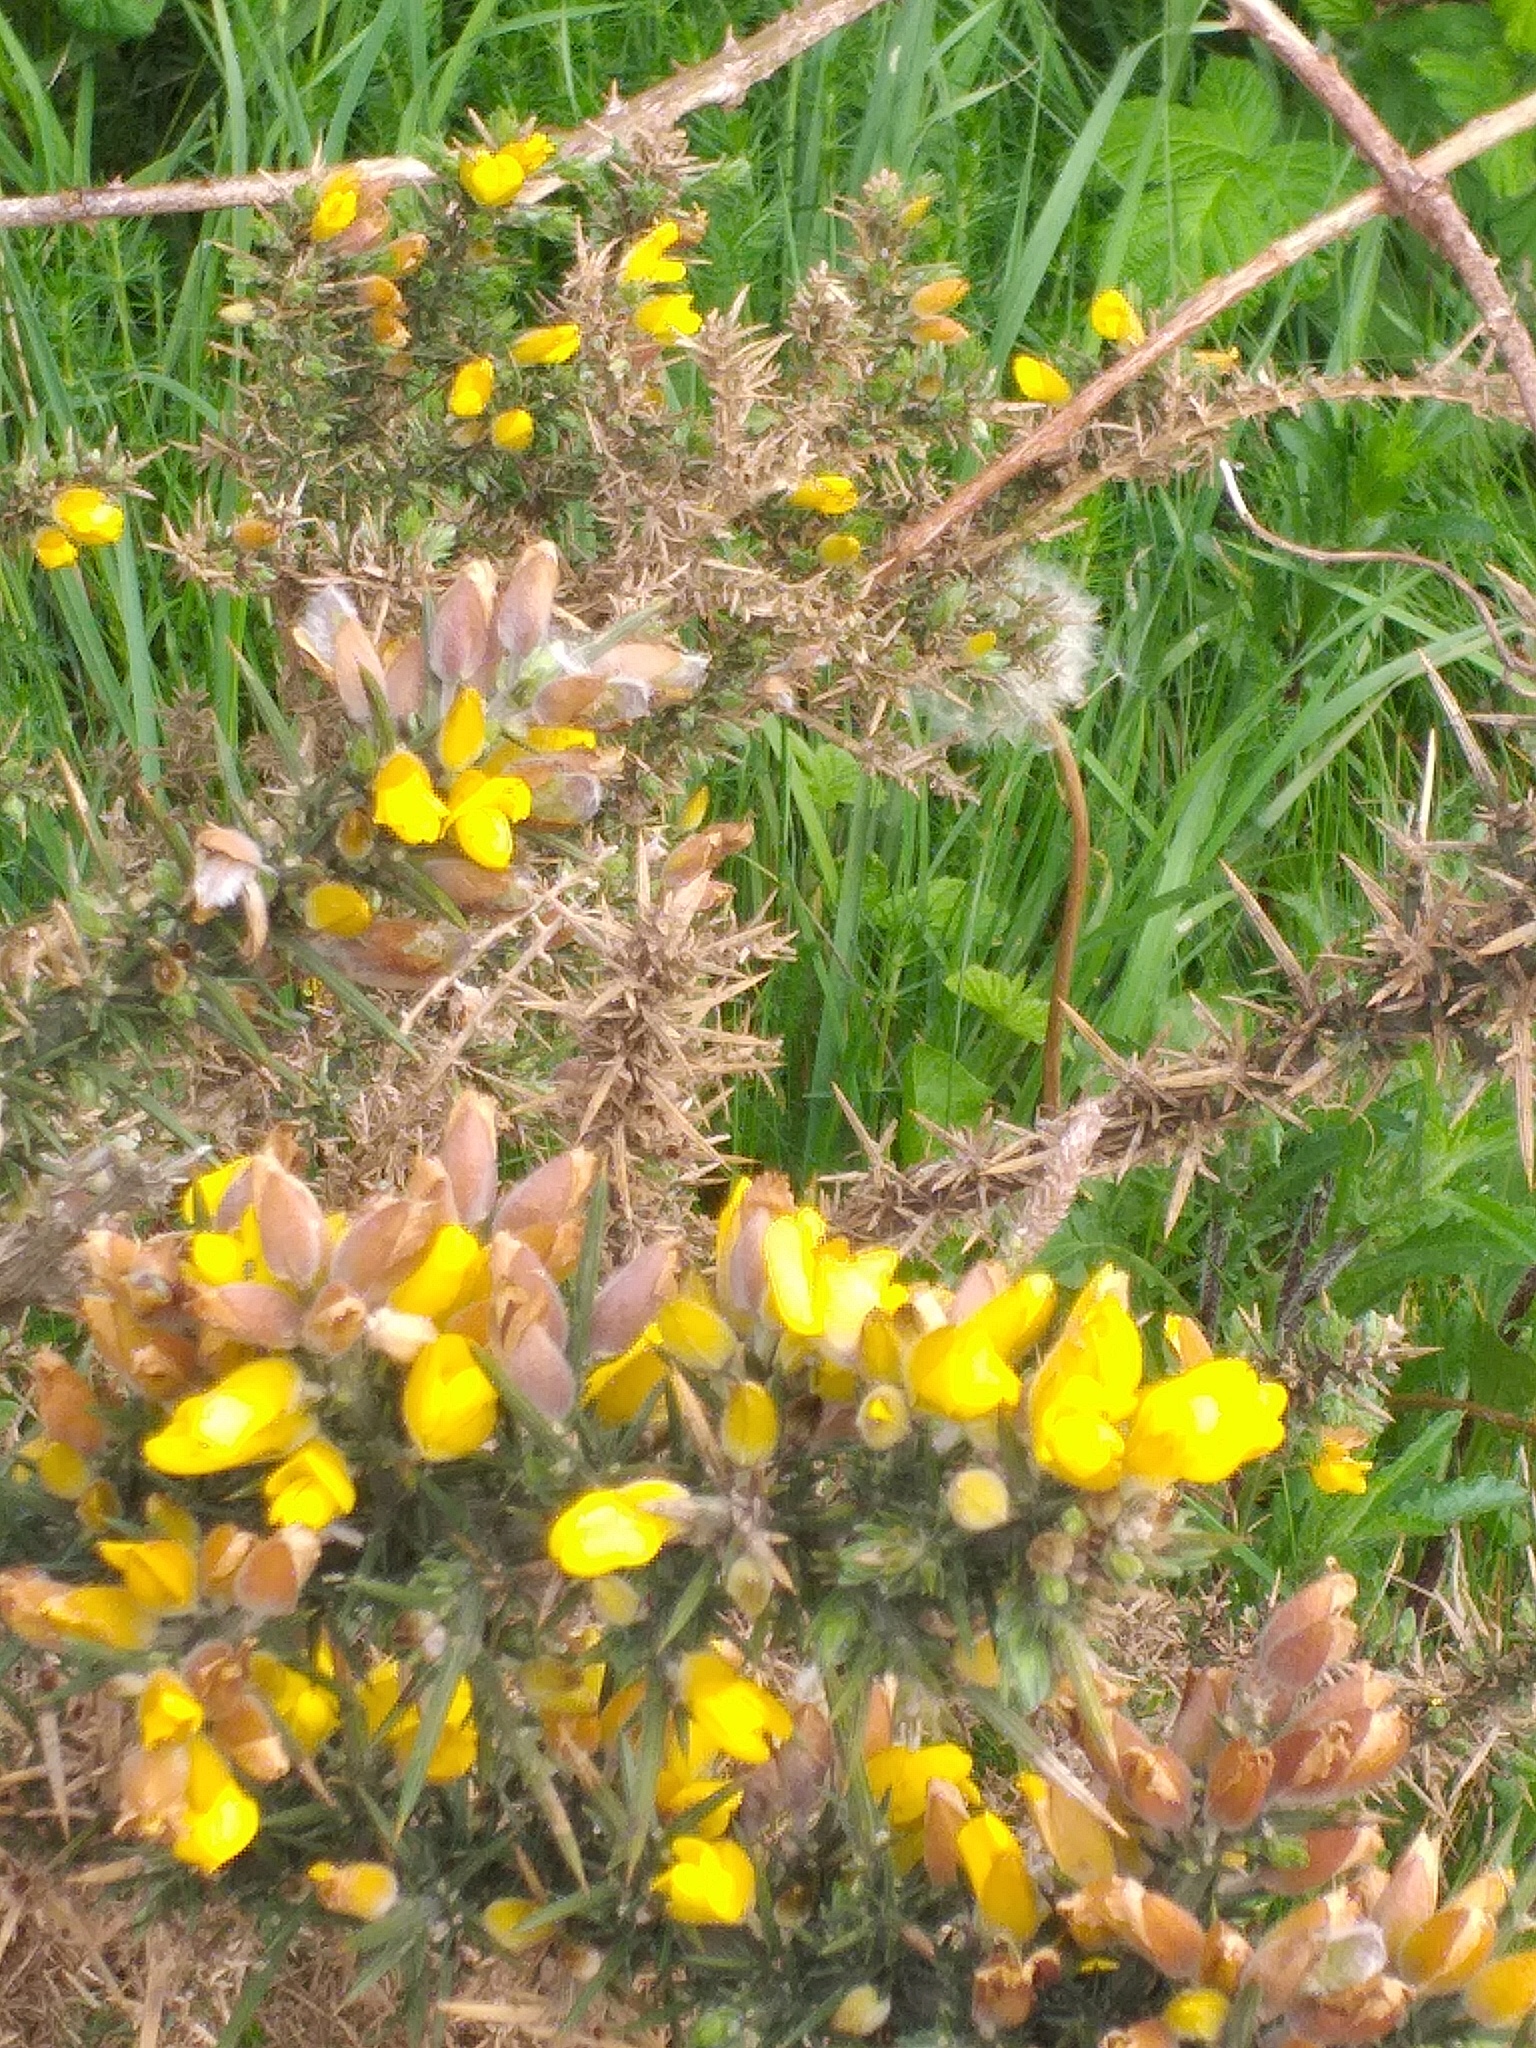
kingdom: Plantae
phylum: Tracheophyta
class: Magnoliopsida
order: Fabales
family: Fabaceae
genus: Ulex
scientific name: Ulex europaeus
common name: Common gorse
